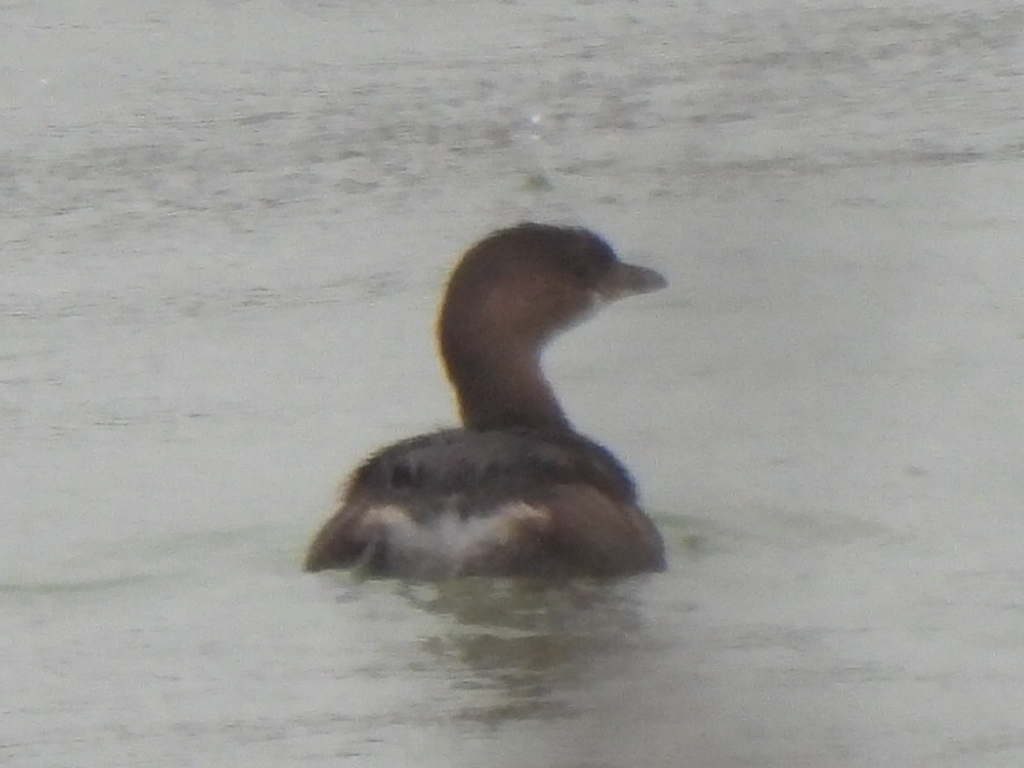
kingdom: Animalia
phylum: Chordata
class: Aves
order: Podicipediformes
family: Podicipedidae
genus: Podilymbus
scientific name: Podilymbus podiceps
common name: Pied-billed grebe
